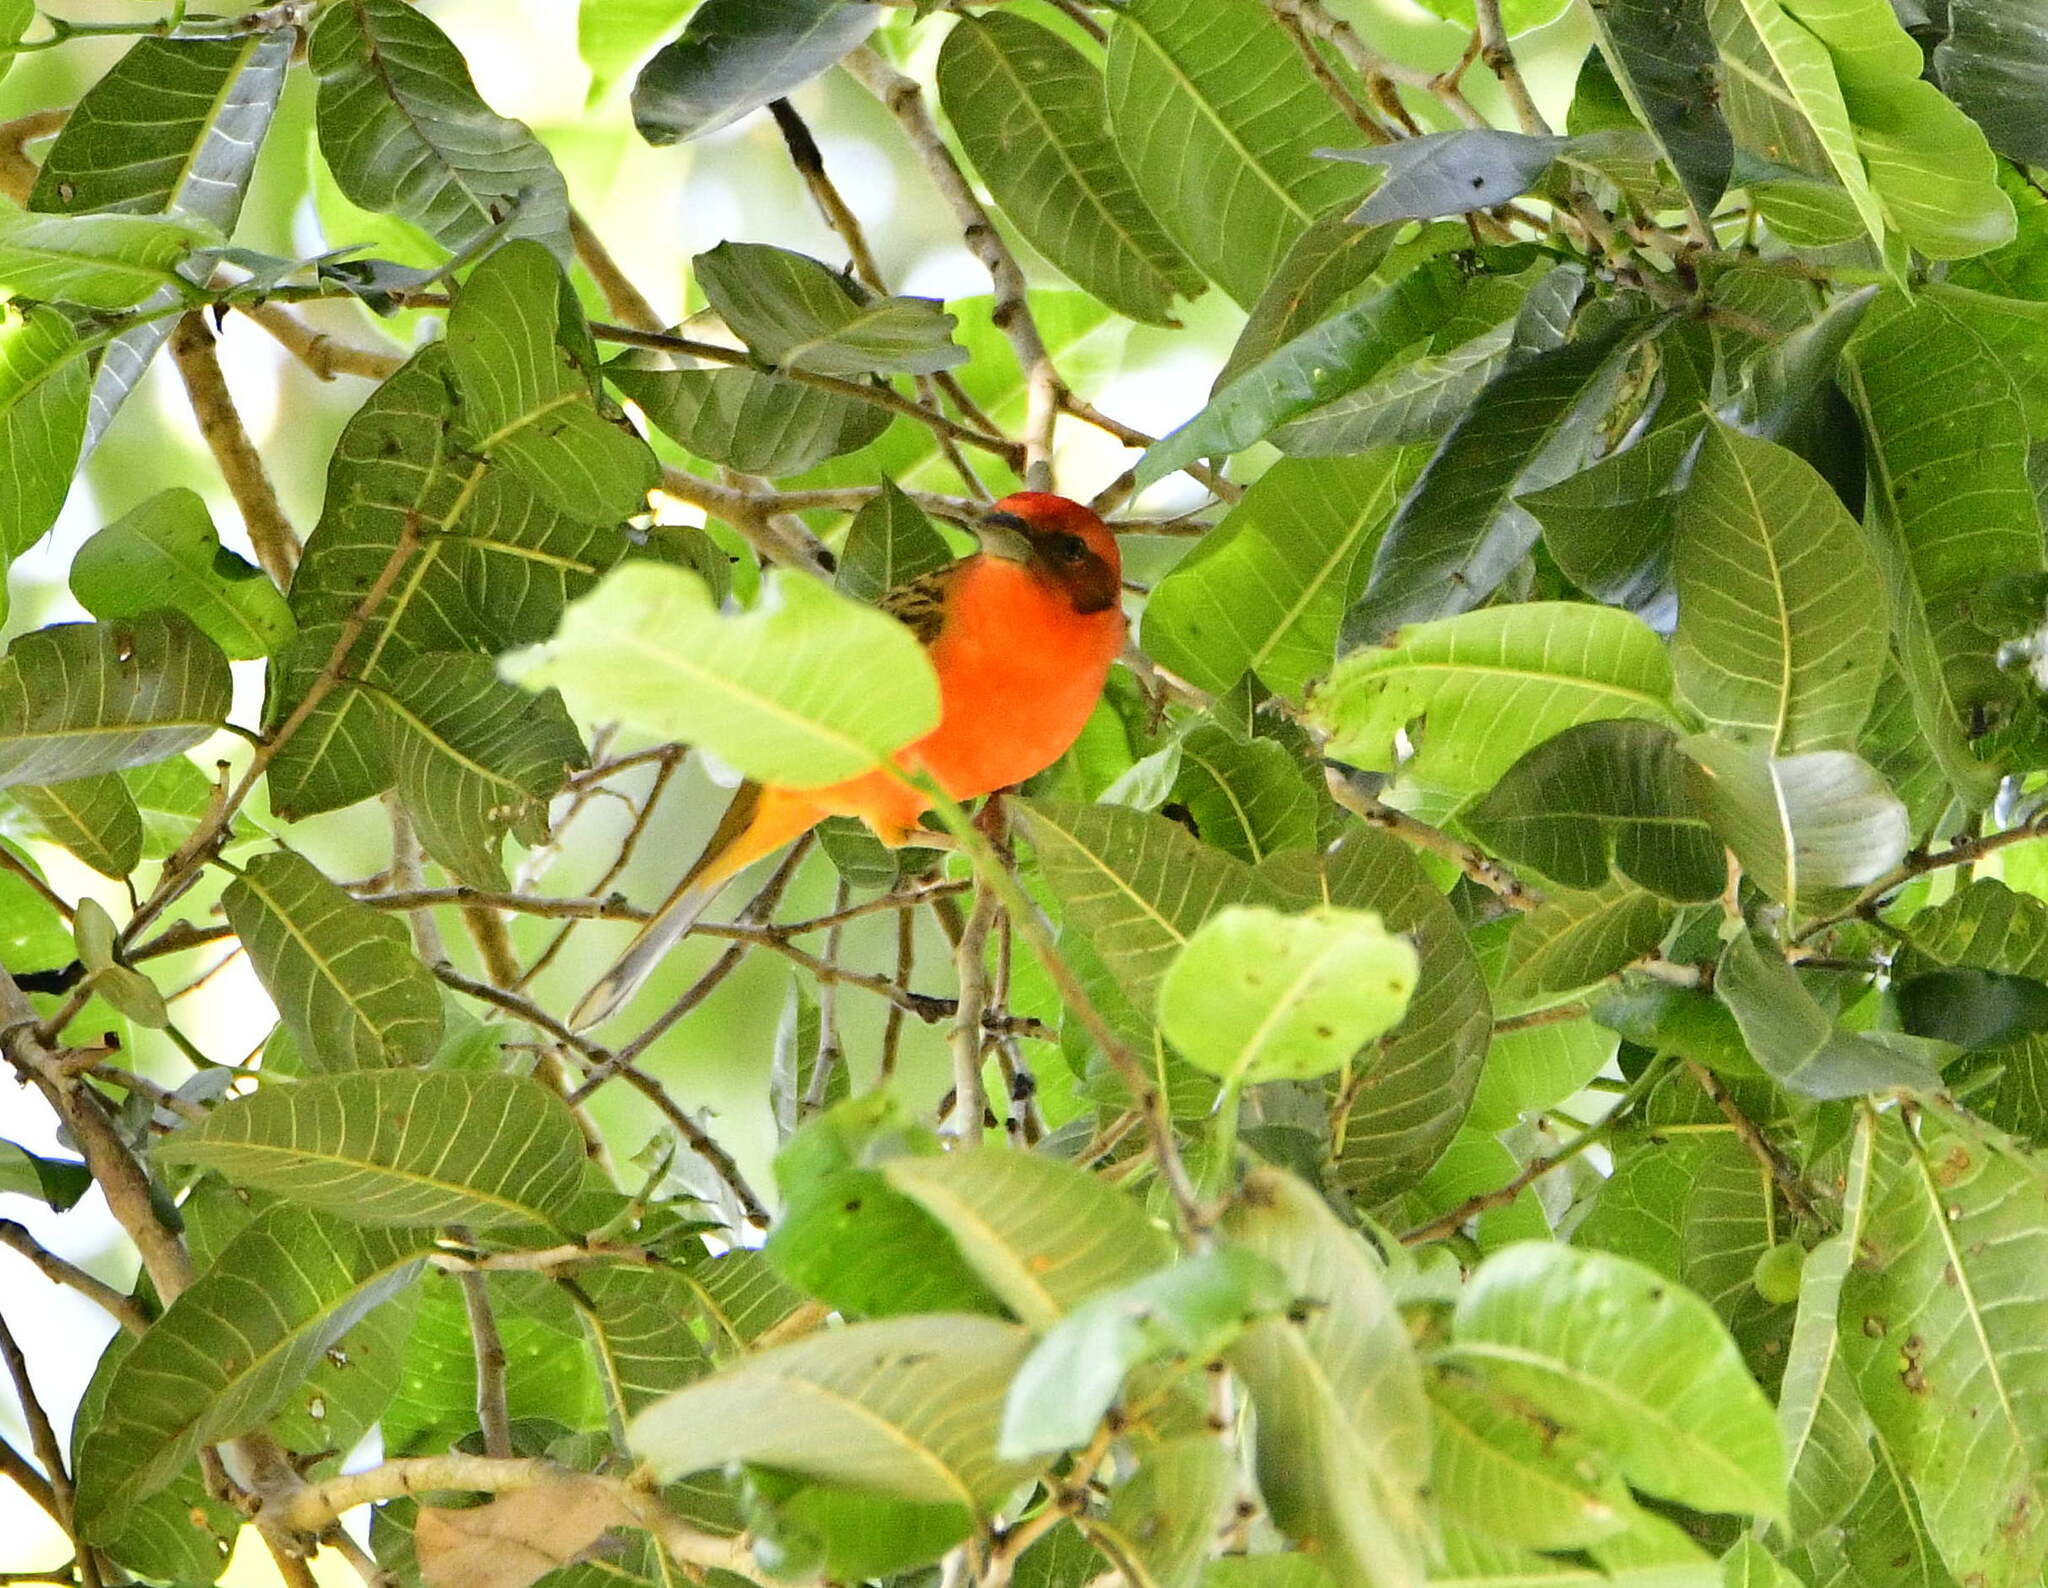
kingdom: Animalia
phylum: Chordata
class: Aves
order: Passeriformes
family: Cardinalidae
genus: Piranga
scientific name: Piranga bidentata
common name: Flame-colored tanager
